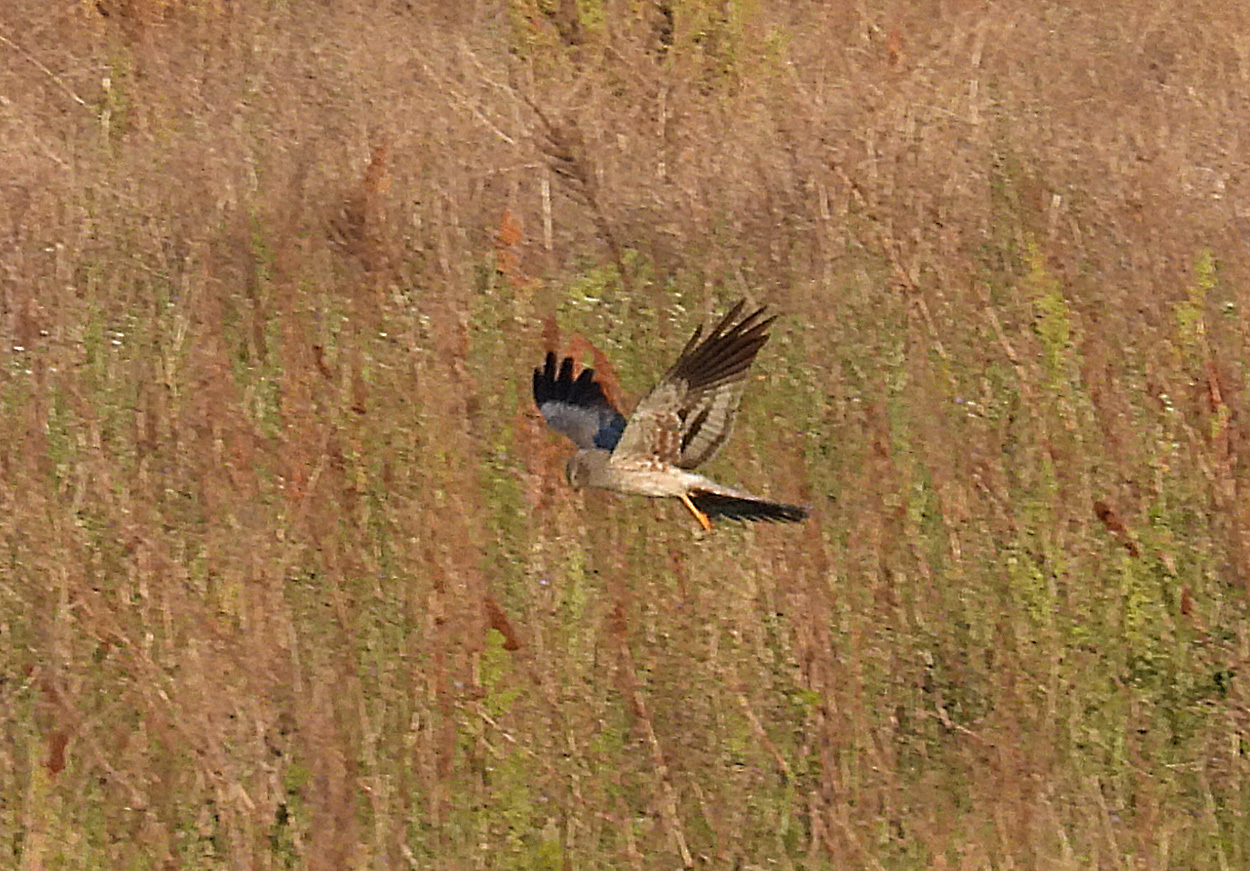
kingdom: Animalia
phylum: Chordata
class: Aves
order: Accipitriformes
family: Accipitridae
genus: Circus
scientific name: Circus pygargus
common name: Montagu's harrier
